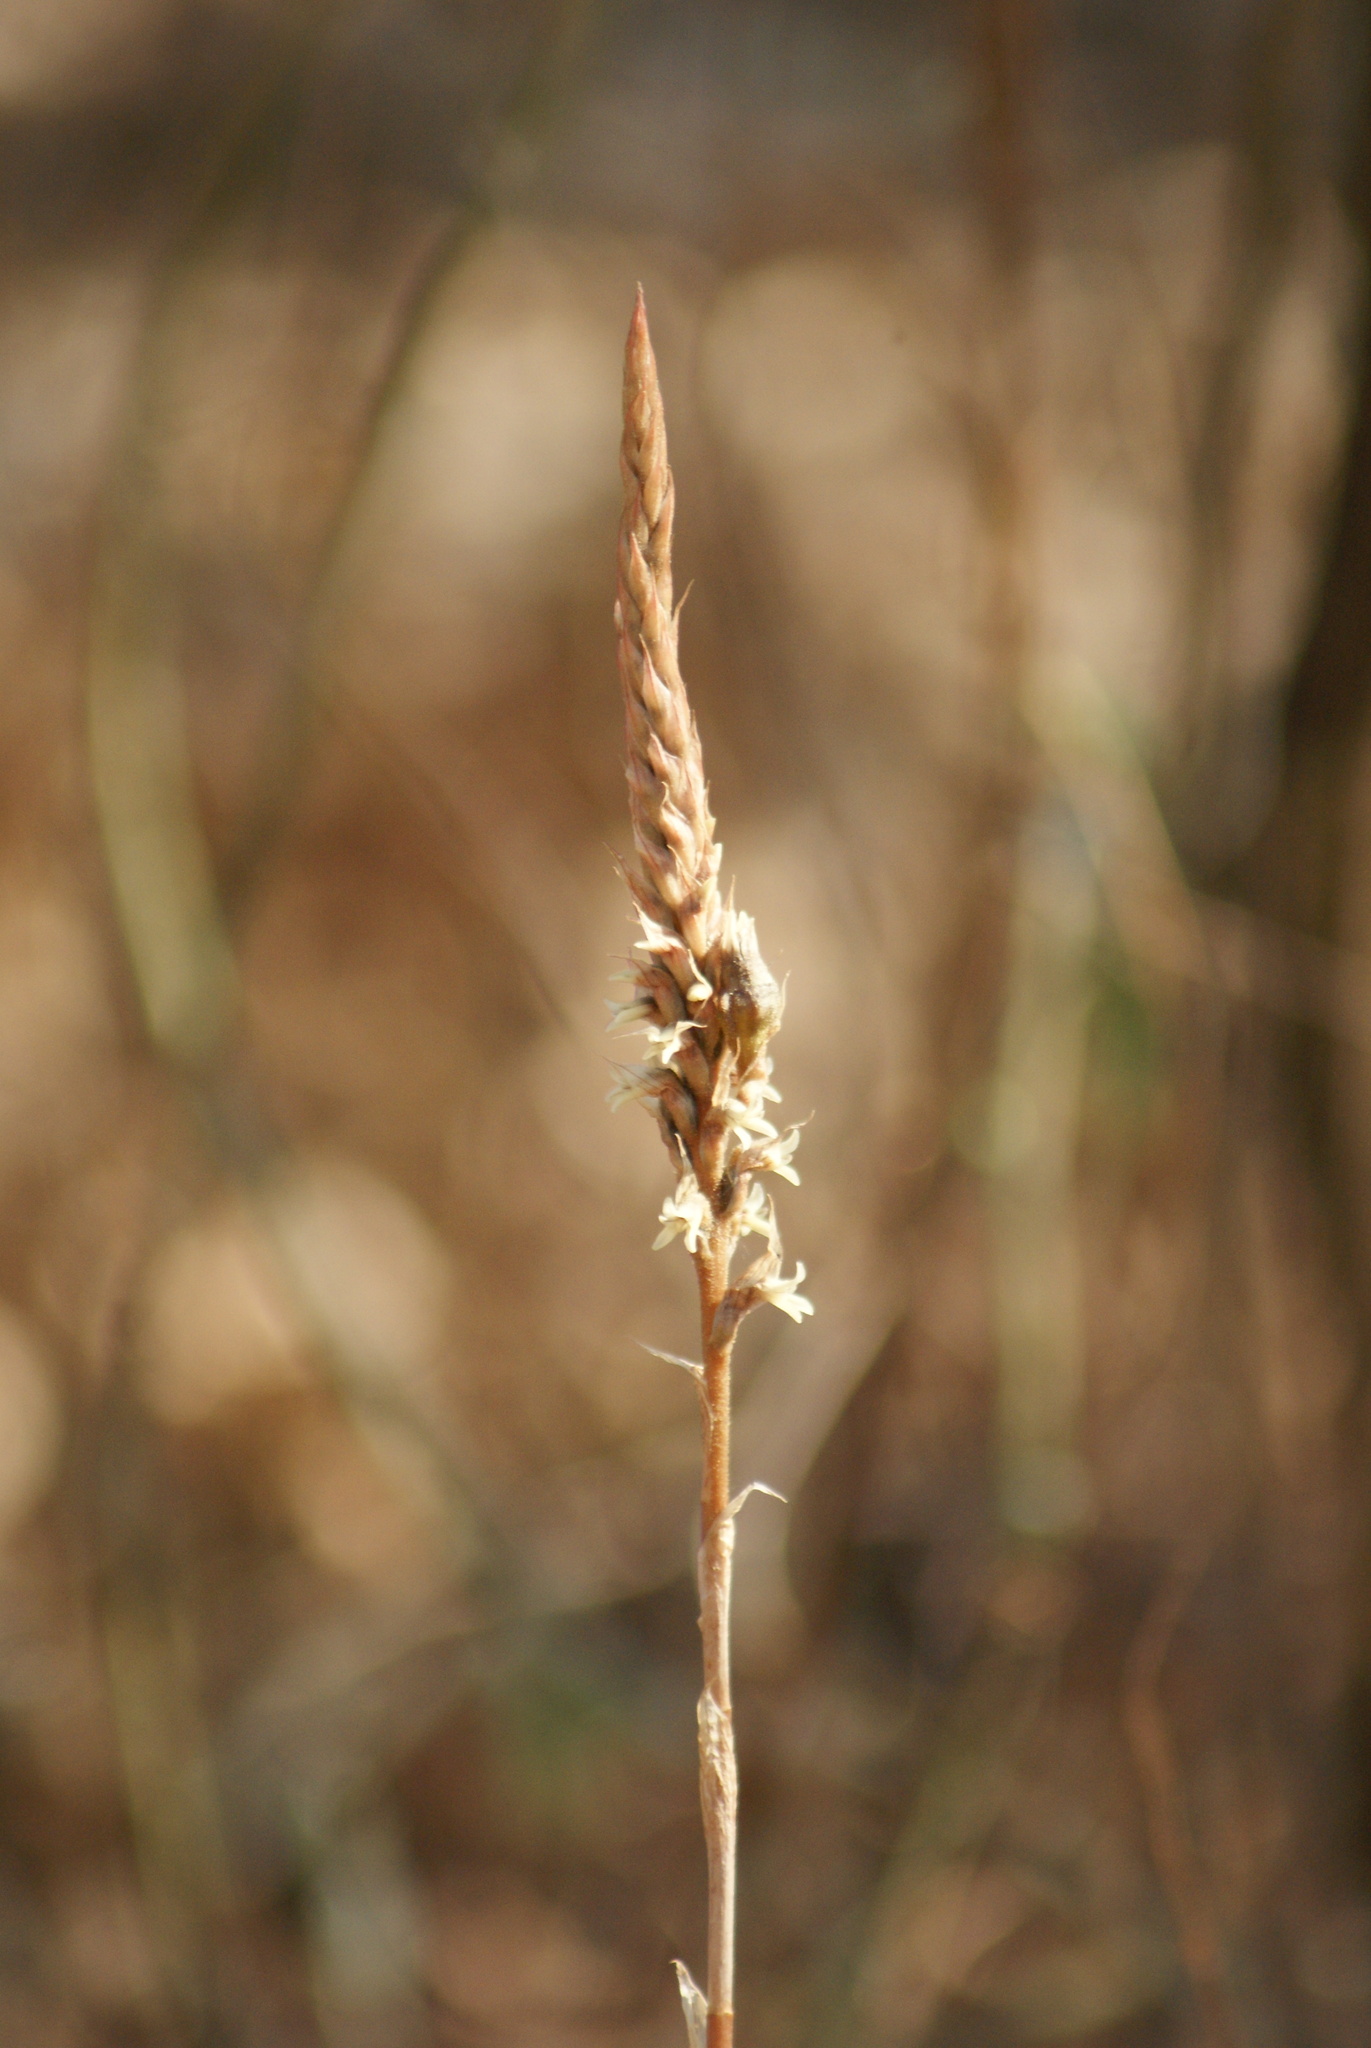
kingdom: Plantae
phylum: Tracheophyta
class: Liliopsida
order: Asparagales
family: Orchidaceae
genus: Aulosepalum
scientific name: Aulosepalum pyramidale
